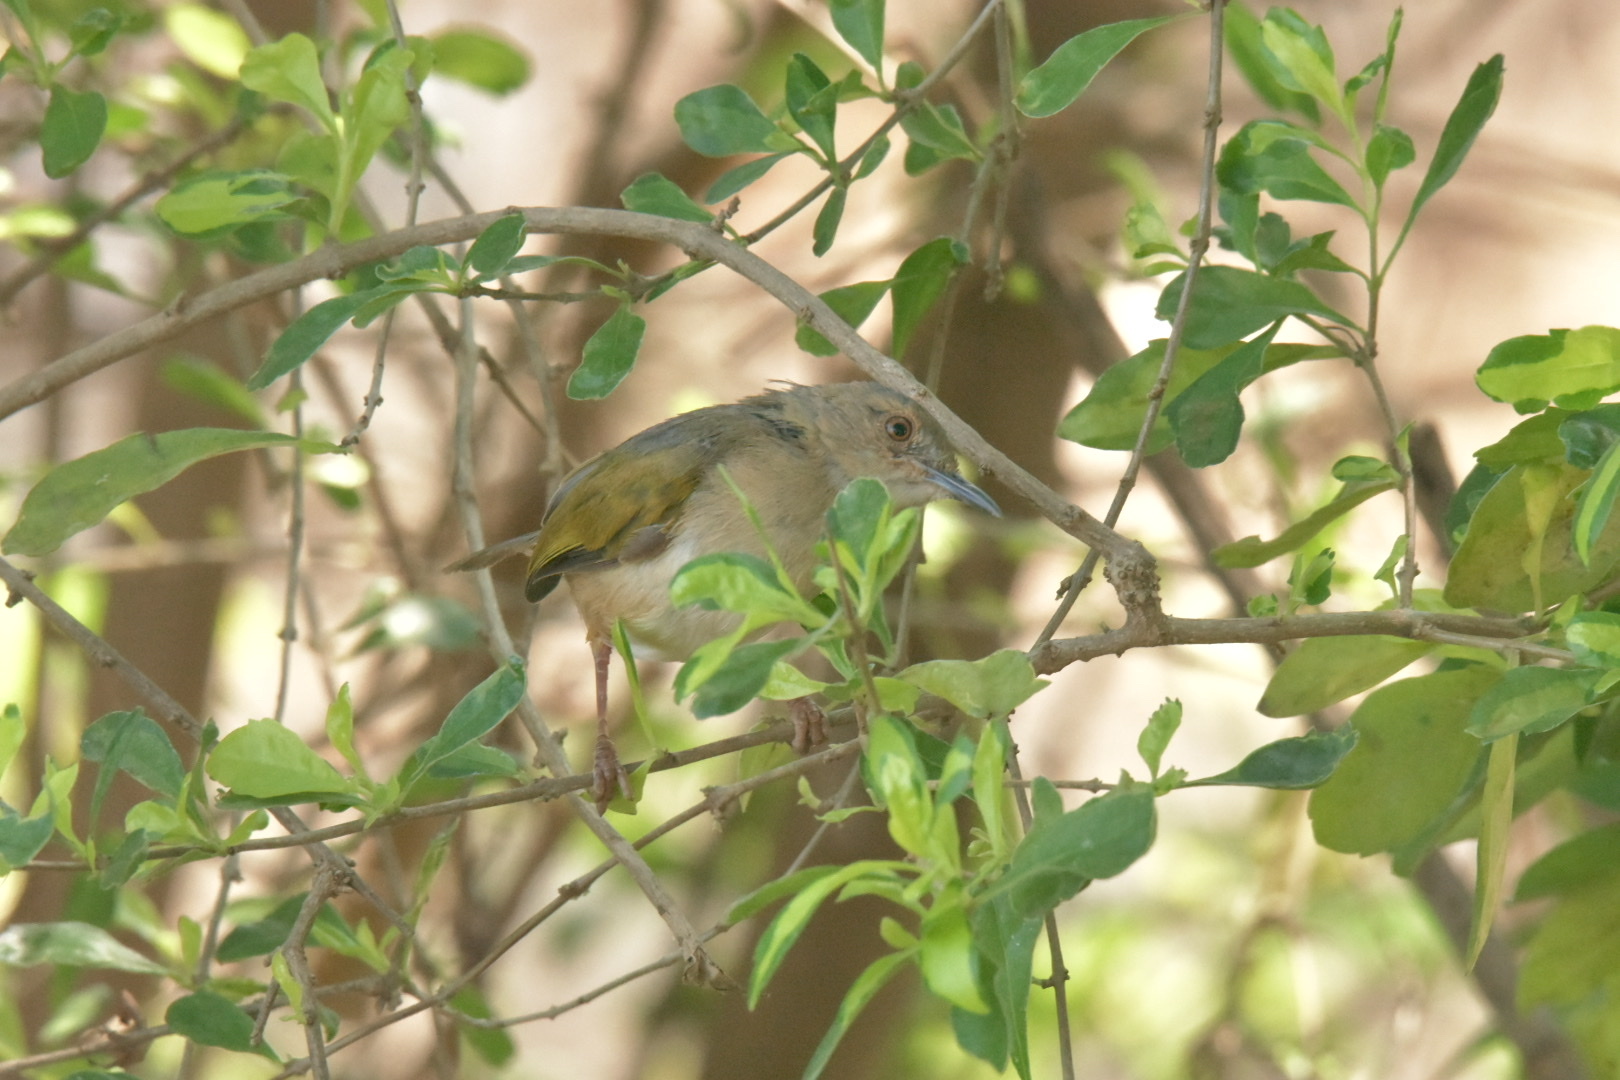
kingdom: Animalia
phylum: Chordata
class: Aves
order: Passeriformes
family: Cisticolidae
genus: Camaroptera
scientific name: Camaroptera brachyura
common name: Green-backed camaroptera
